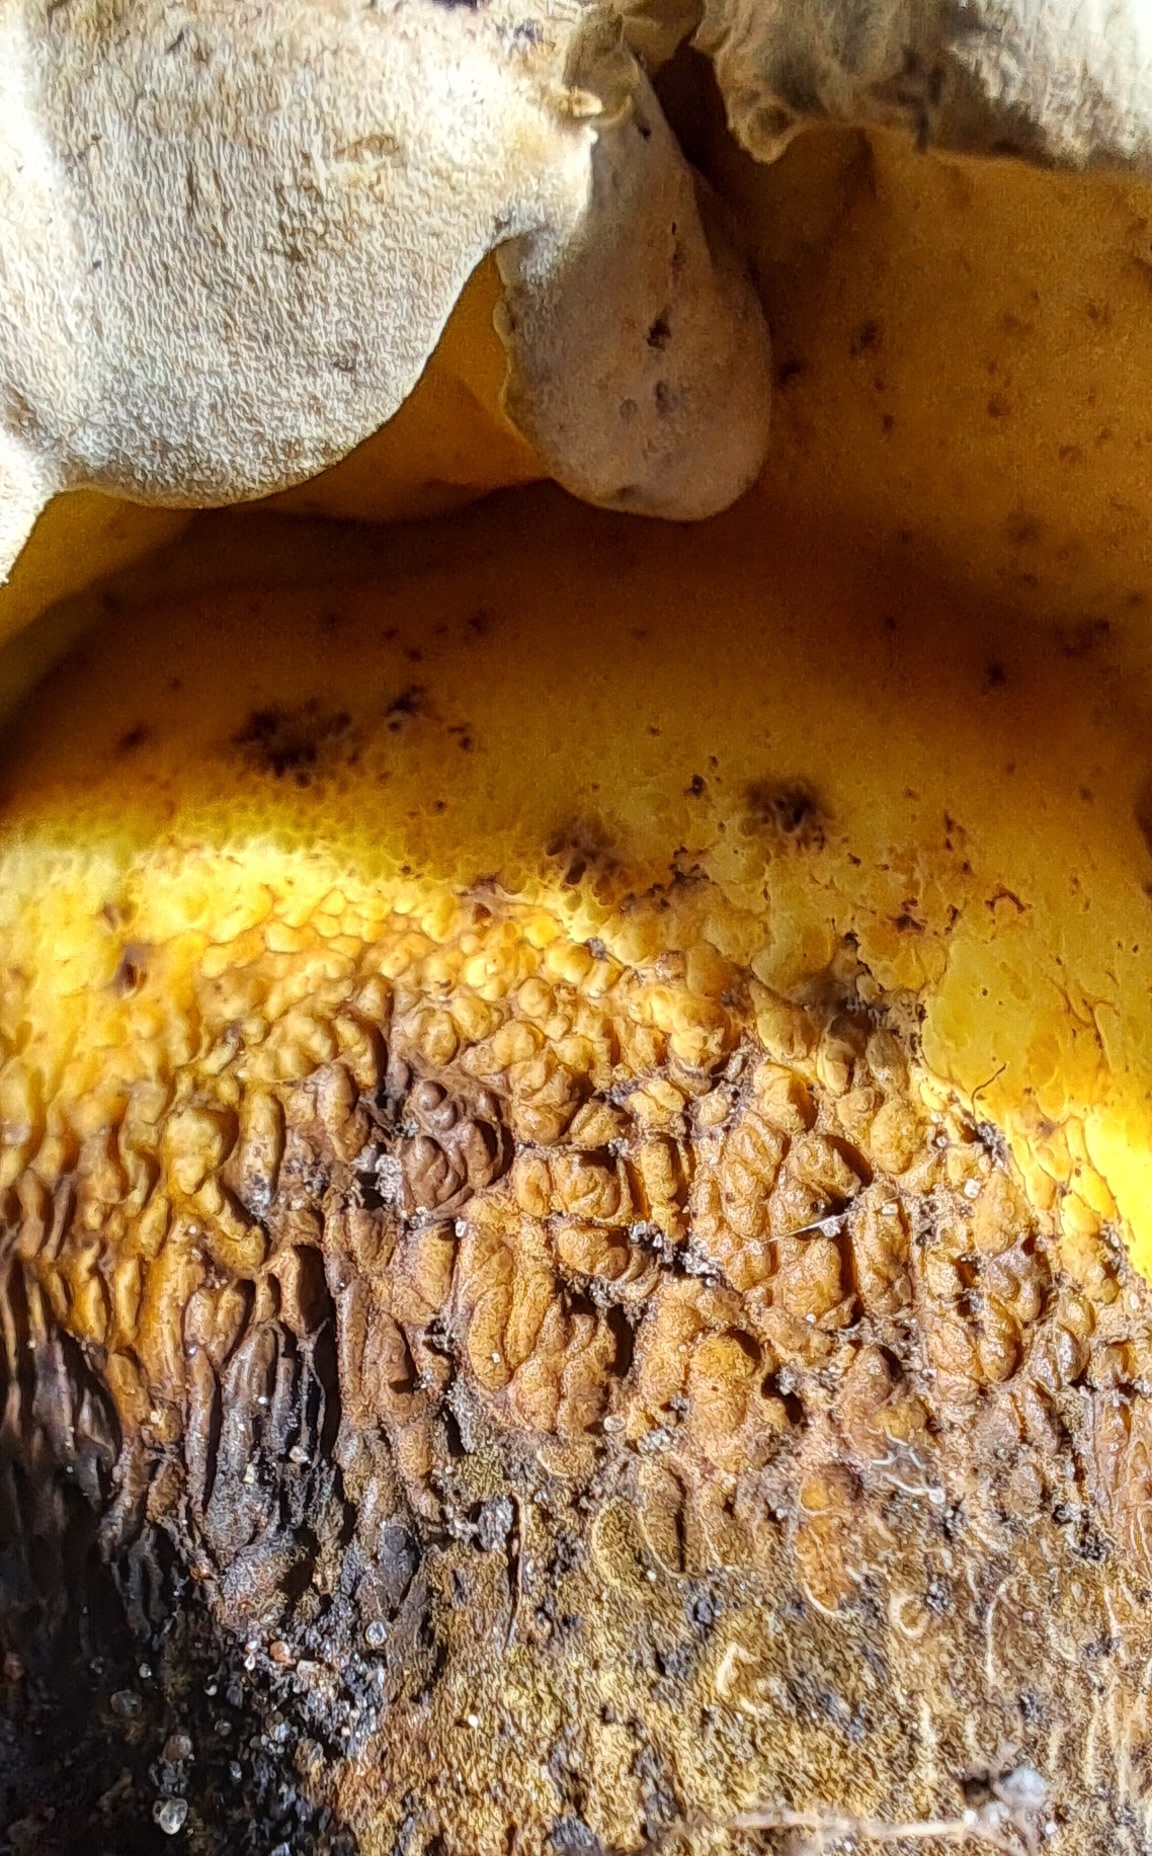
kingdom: Fungi
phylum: Basidiomycota
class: Agaricomycetes
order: Boletales
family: Boletaceae
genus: Caloboletus
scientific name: Caloboletus radicans
